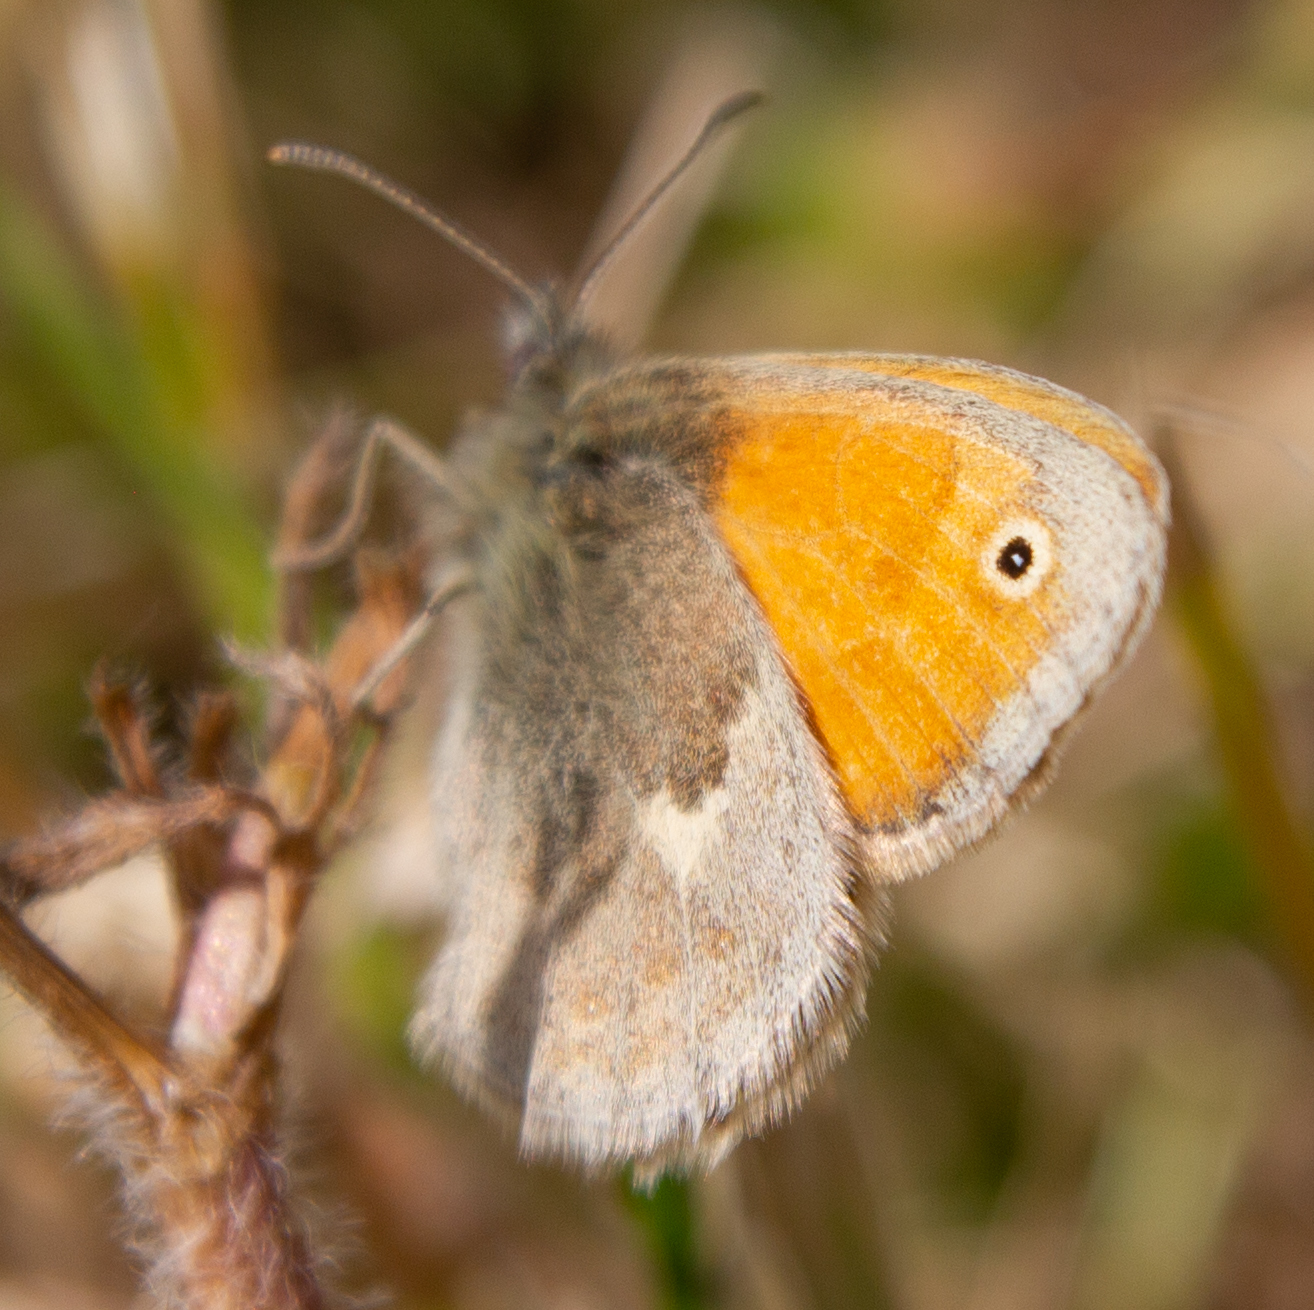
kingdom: Animalia
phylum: Arthropoda
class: Insecta
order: Lepidoptera
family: Nymphalidae
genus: Coenonympha
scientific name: Coenonympha pamphilus
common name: Small heath
